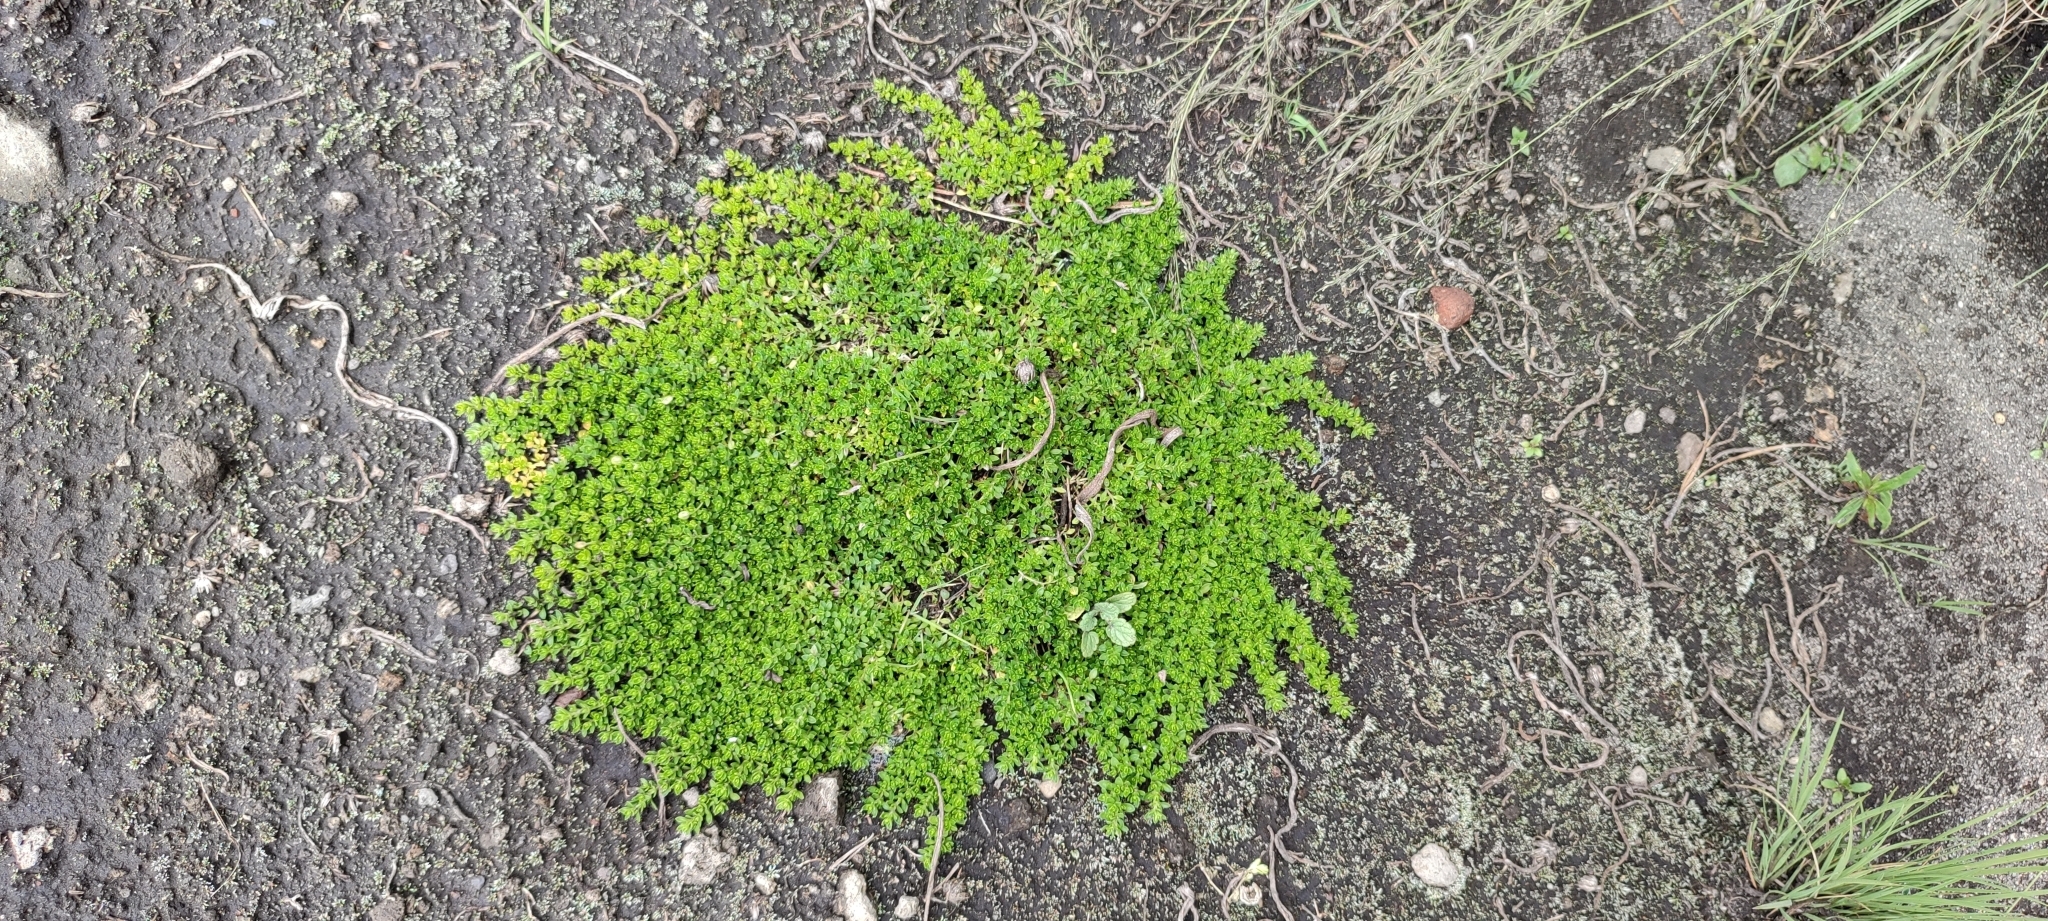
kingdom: Plantae
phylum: Tracheophyta
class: Magnoliopsida
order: Caryophyllales
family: Caryophyllaceae
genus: Arenaria
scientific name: Arenaria bryoides
